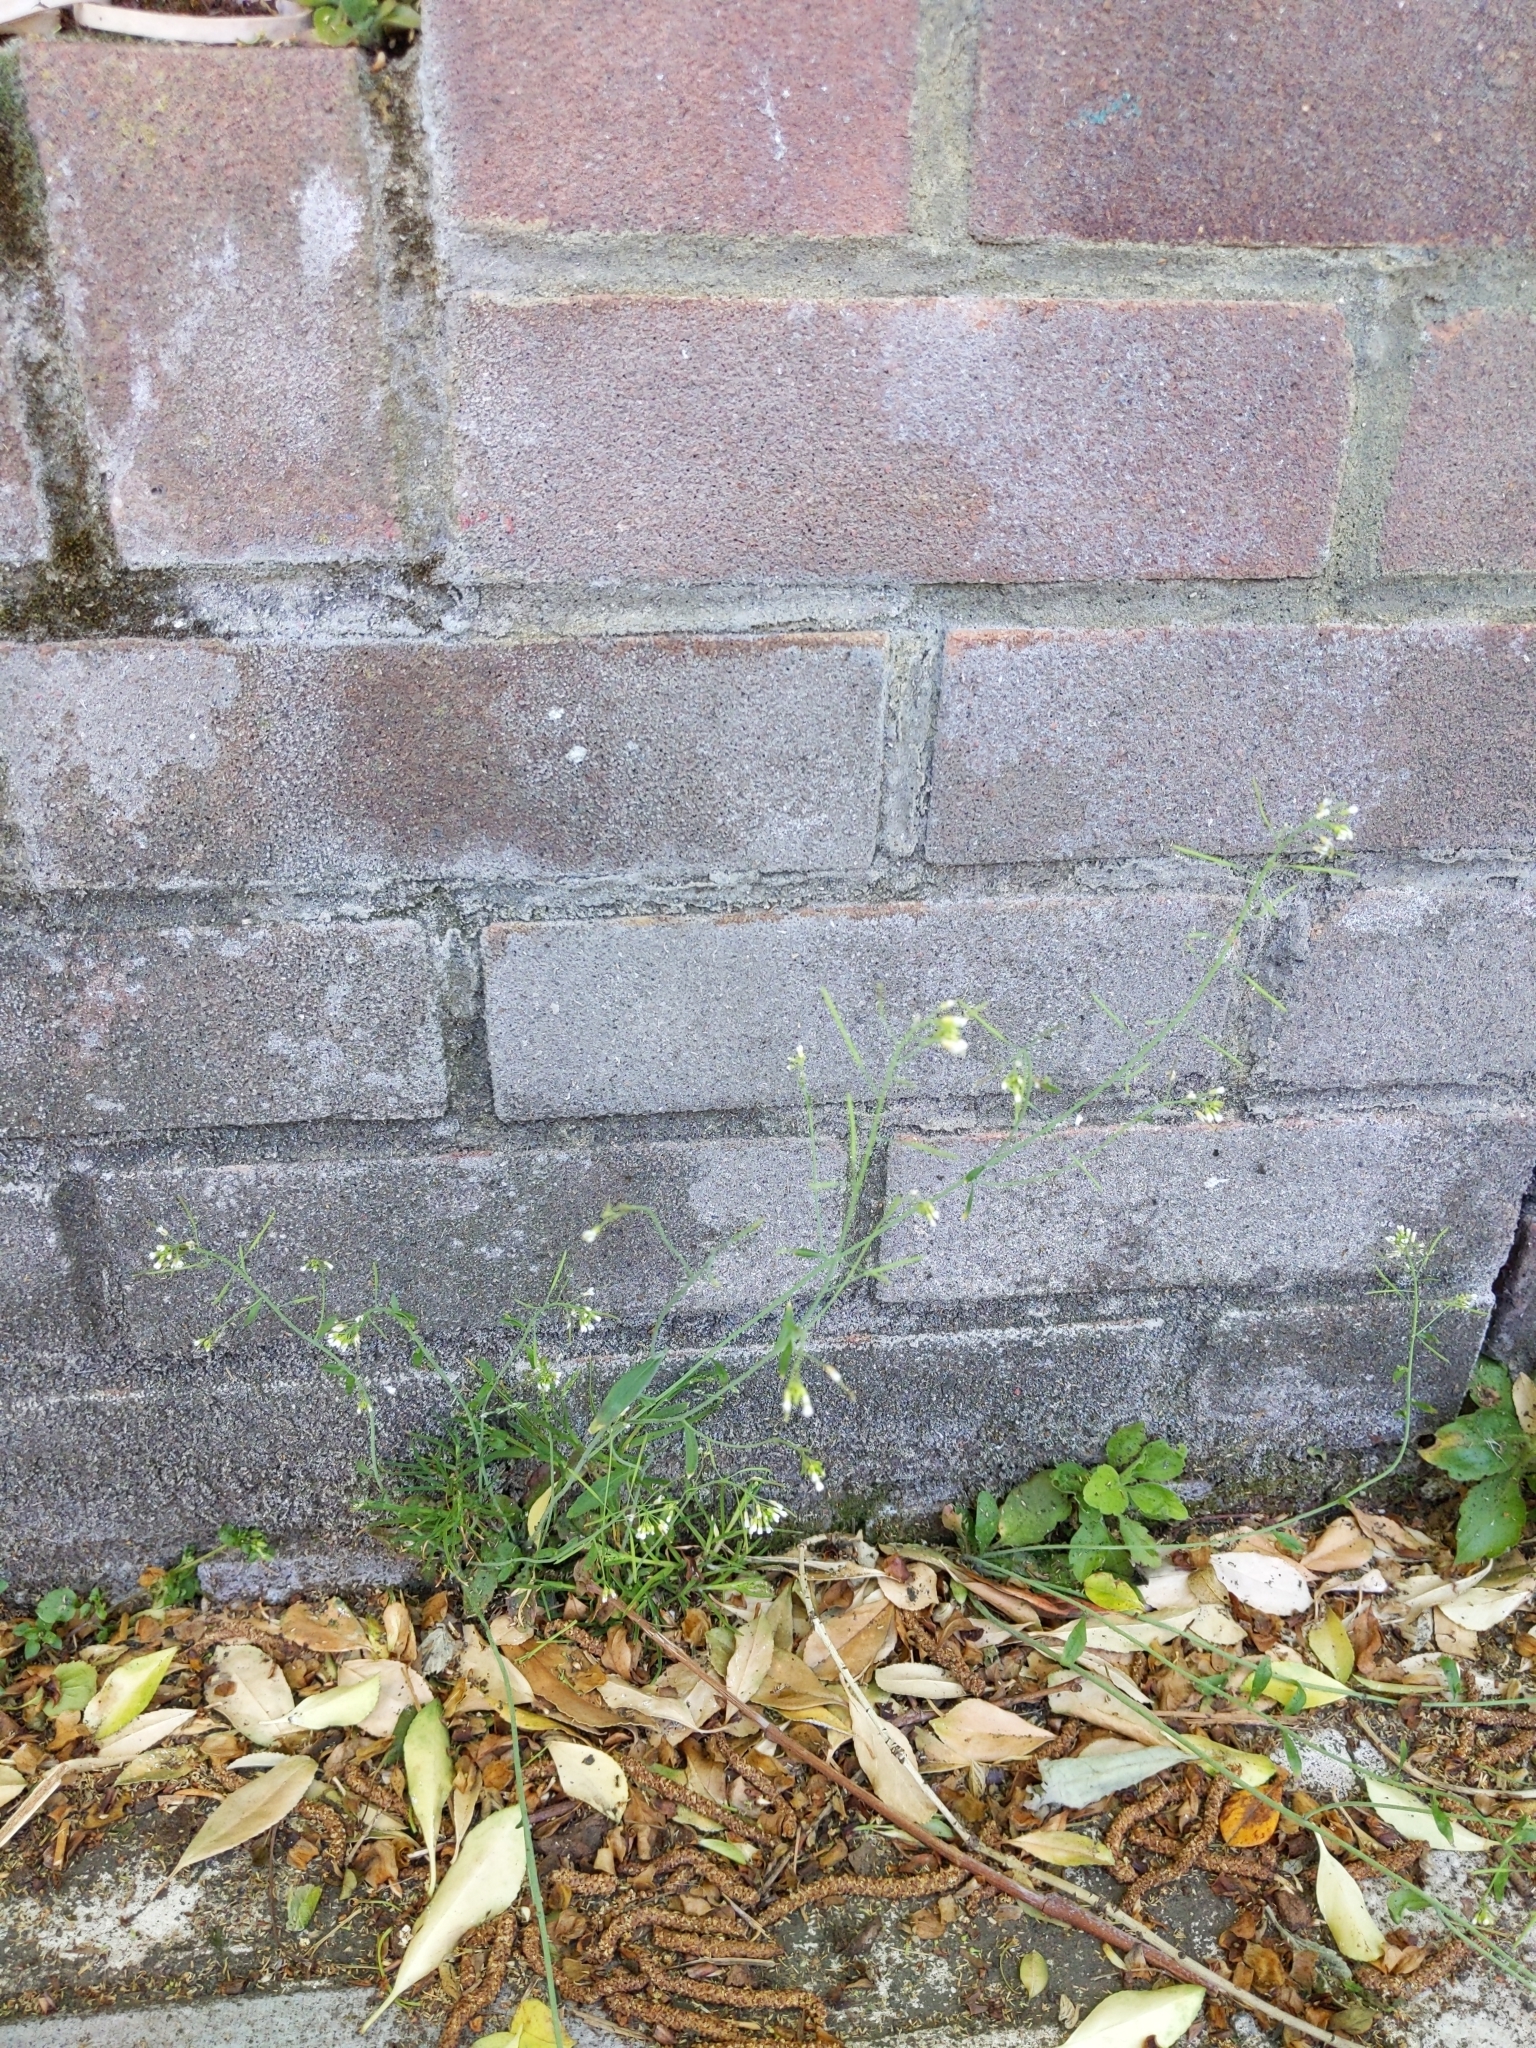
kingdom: Plantae
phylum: Tracheophyta
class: Magnoliopsida
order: Brassicales
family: Brassicaceae
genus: Arabidopsis
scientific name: Arabidopsis thaliana
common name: Thale cress
